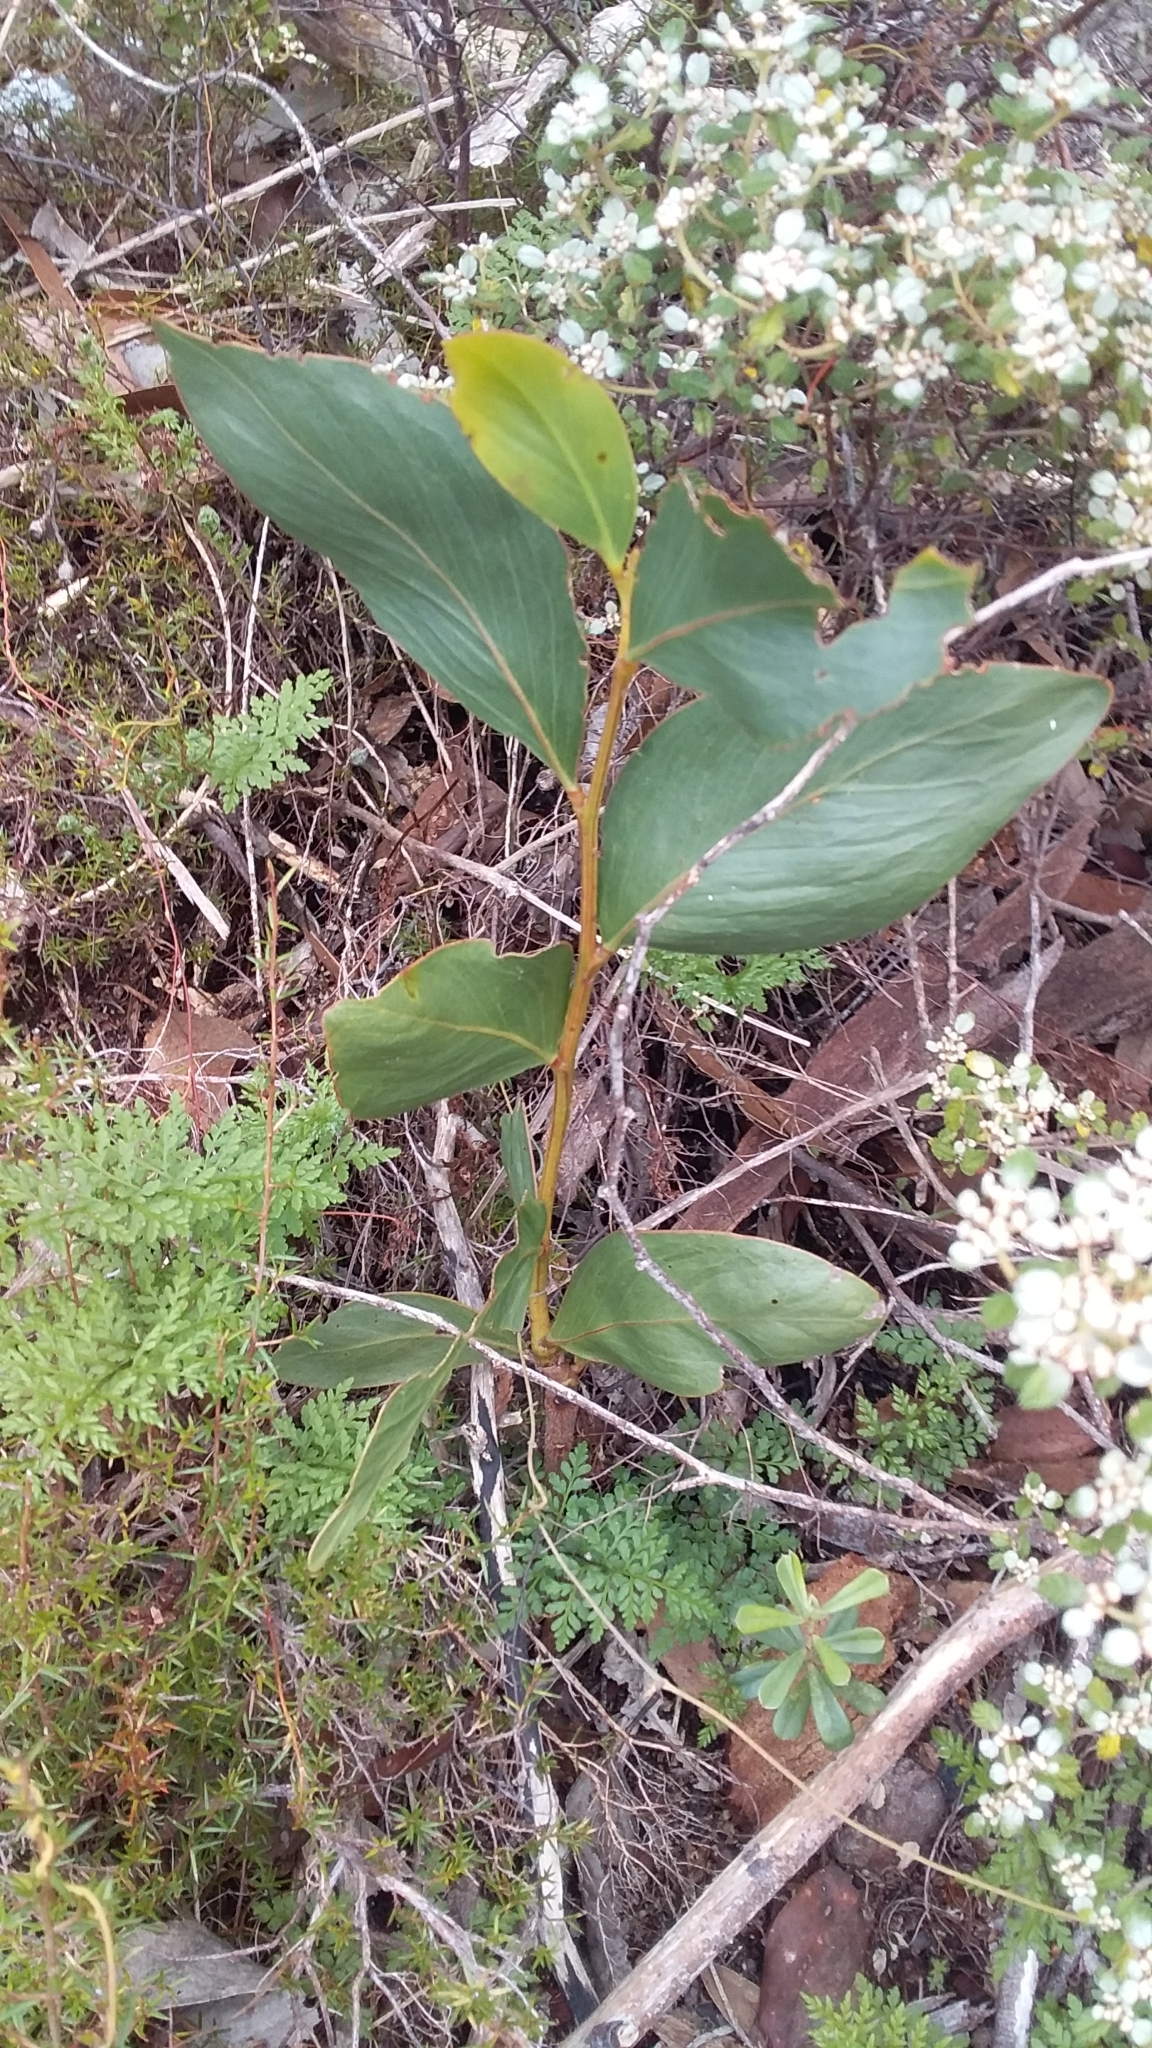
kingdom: Plantae
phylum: Tracheophyta
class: Magnoliopsida
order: Fabales
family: Fabaceae
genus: Acacia
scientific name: Acacia pycnantha
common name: Golden wattle
